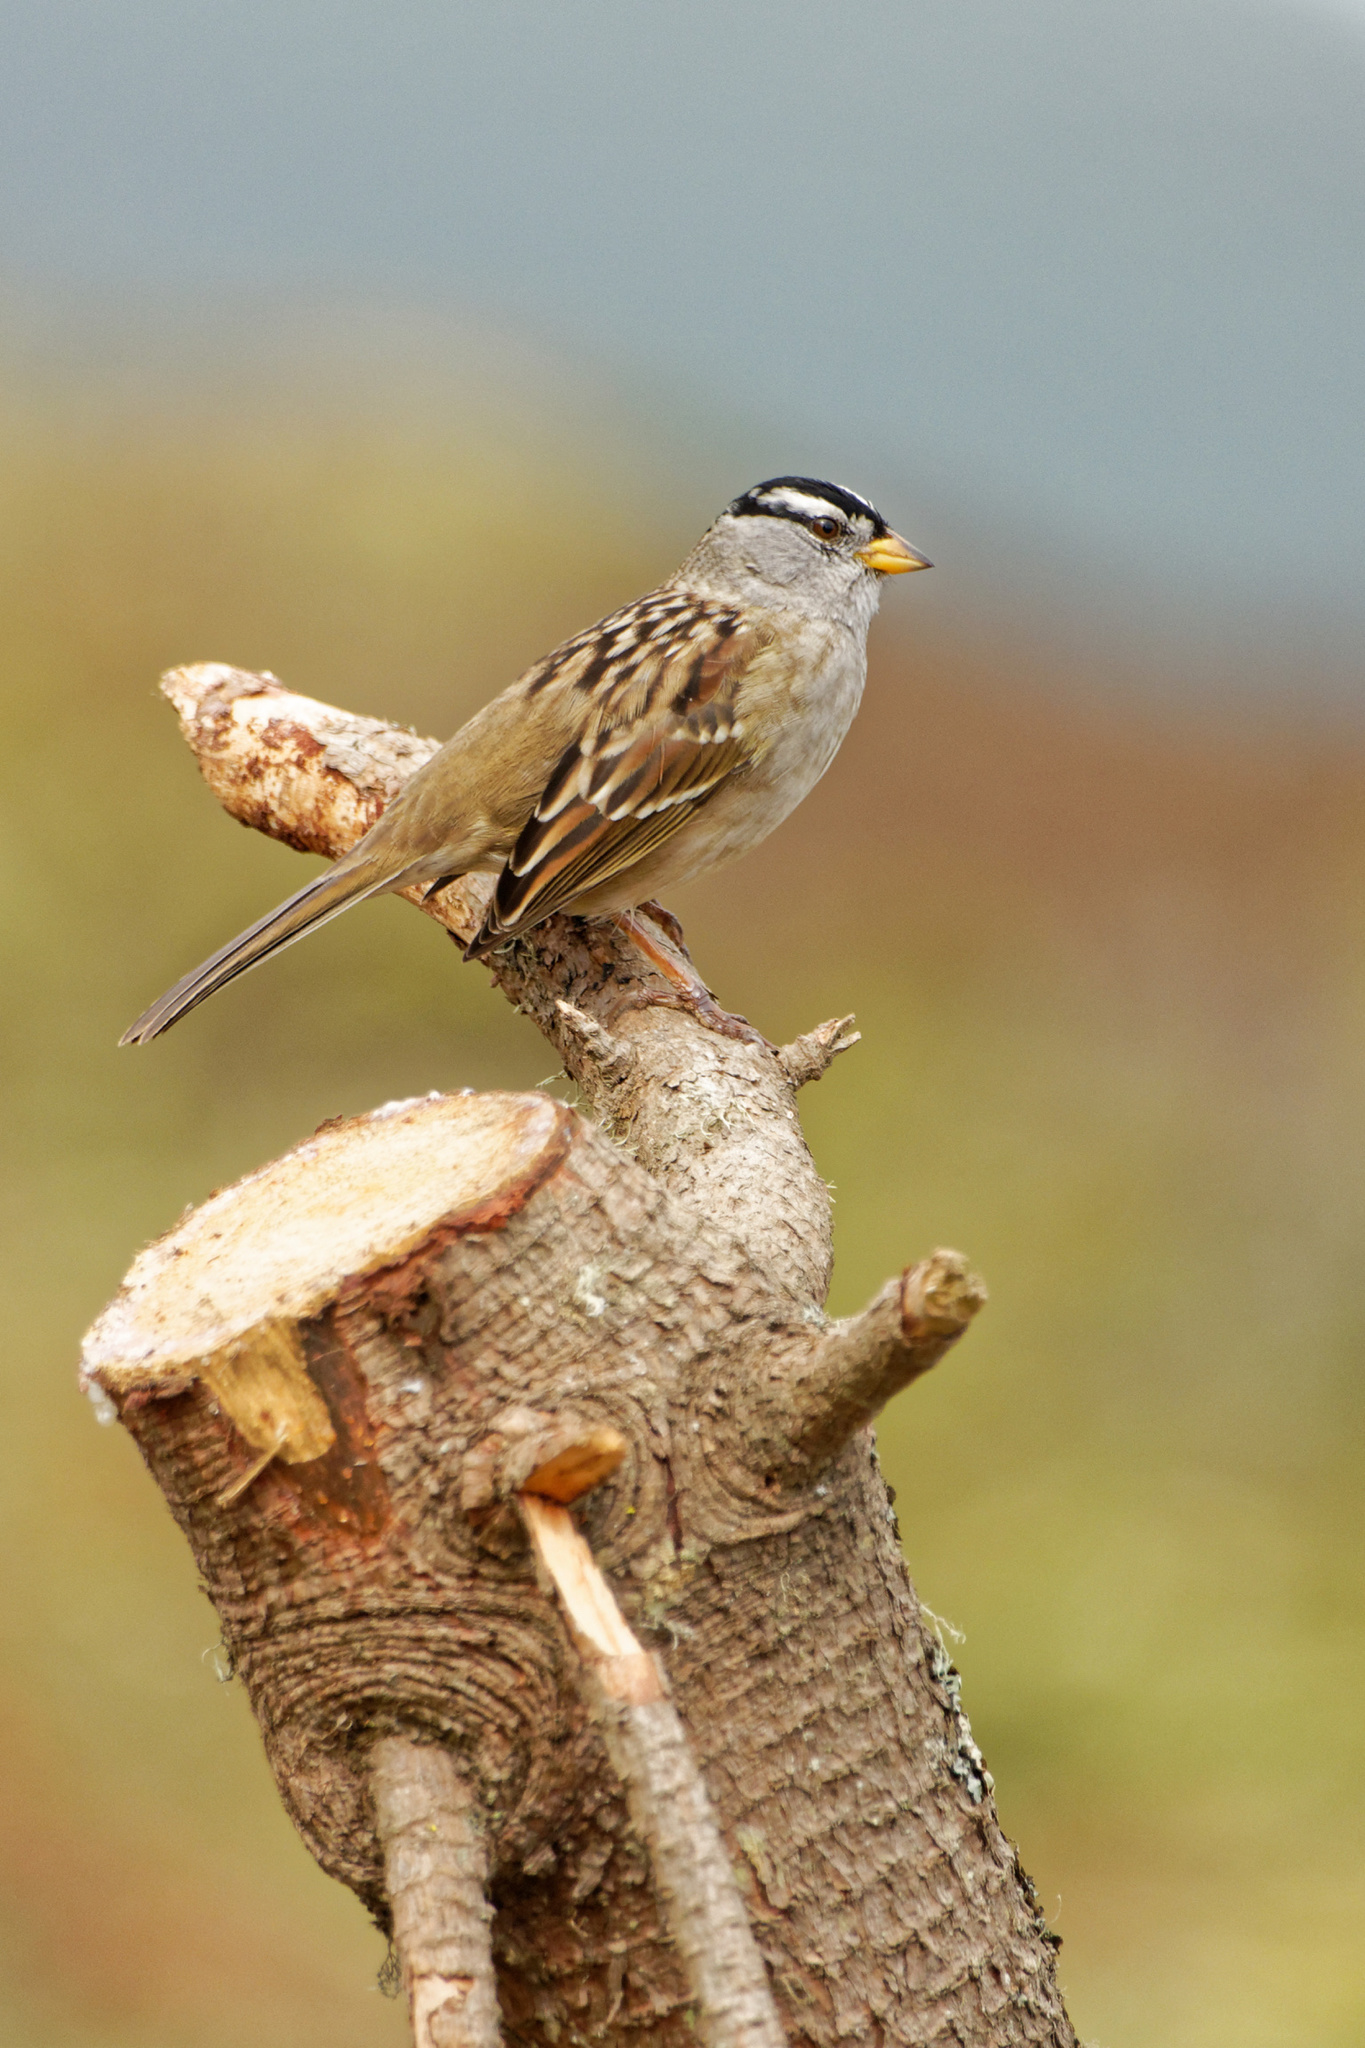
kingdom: Animalia
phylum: Chordata
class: Aves
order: Passeriformes
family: Passerellidae
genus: Zonotrichia
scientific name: Zonotrichia leucophrys
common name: White-crowned sparrow
